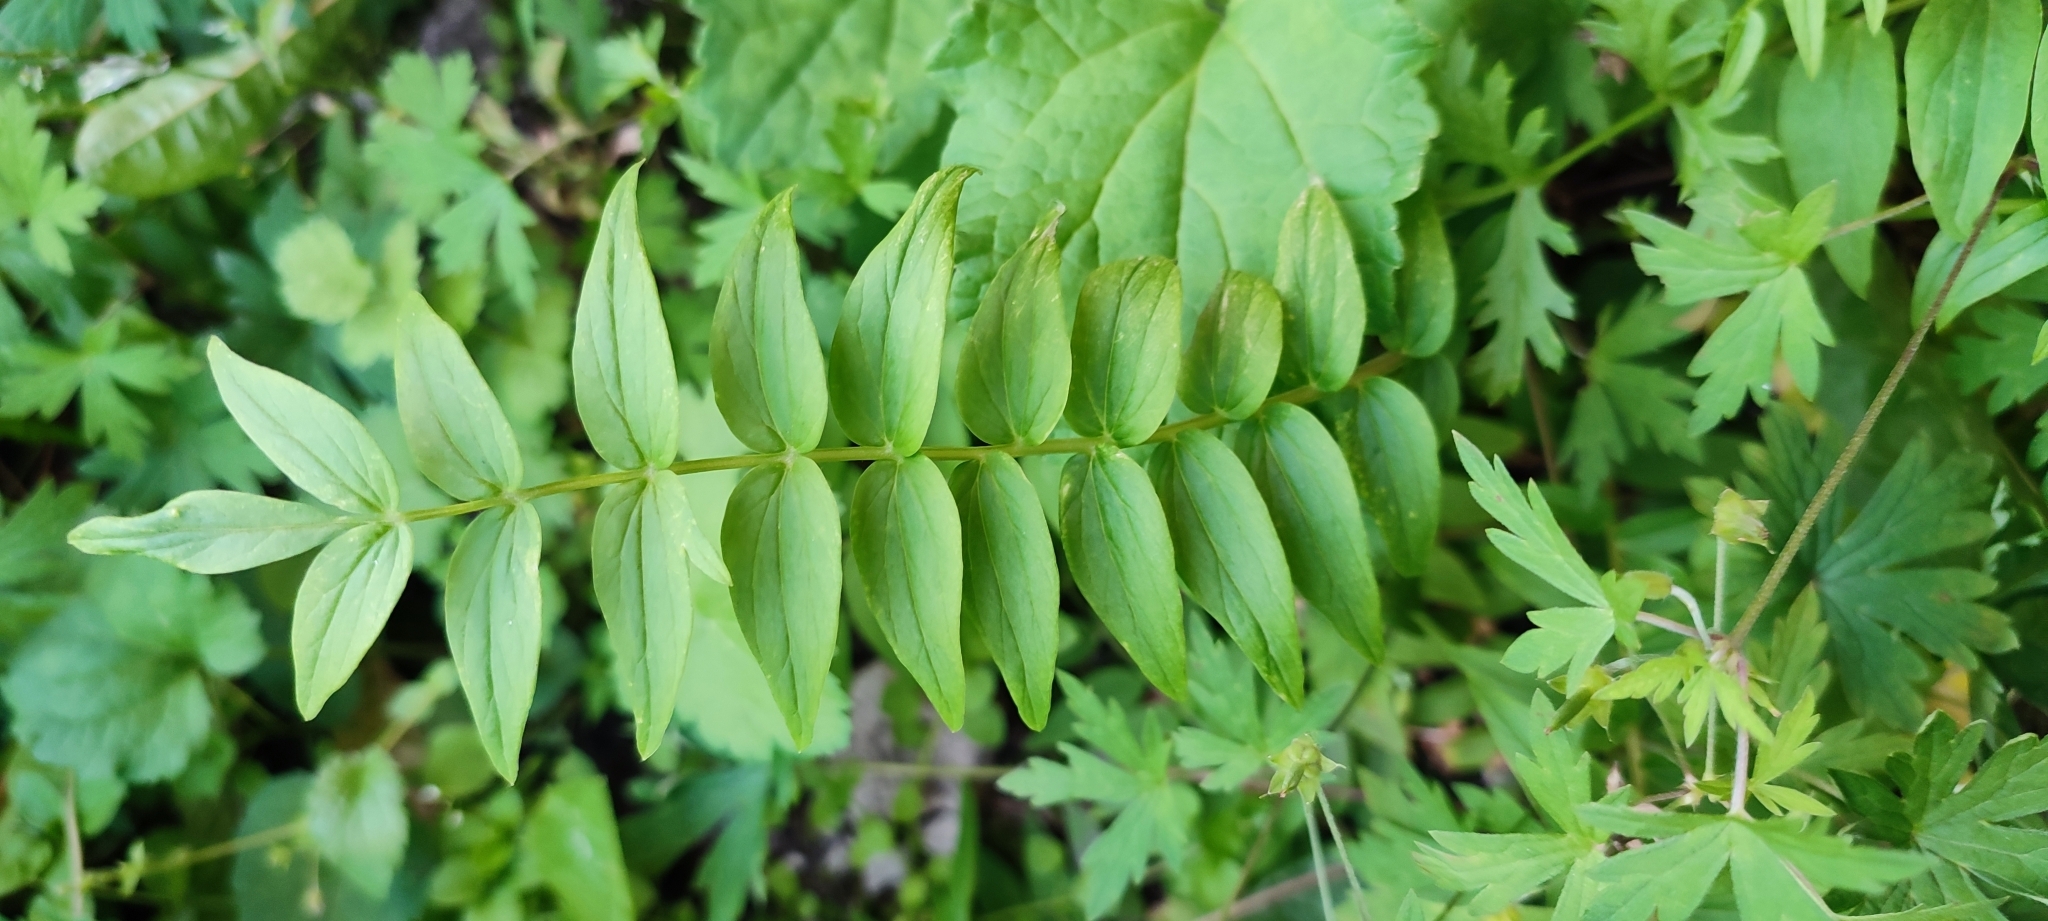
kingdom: Plantae
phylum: Tracheophyta
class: Magnoliopsida
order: Ericales
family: Polemoniaceae
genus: Polemonium
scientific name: Polemonium caeruleum
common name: Jacob's-ladder
